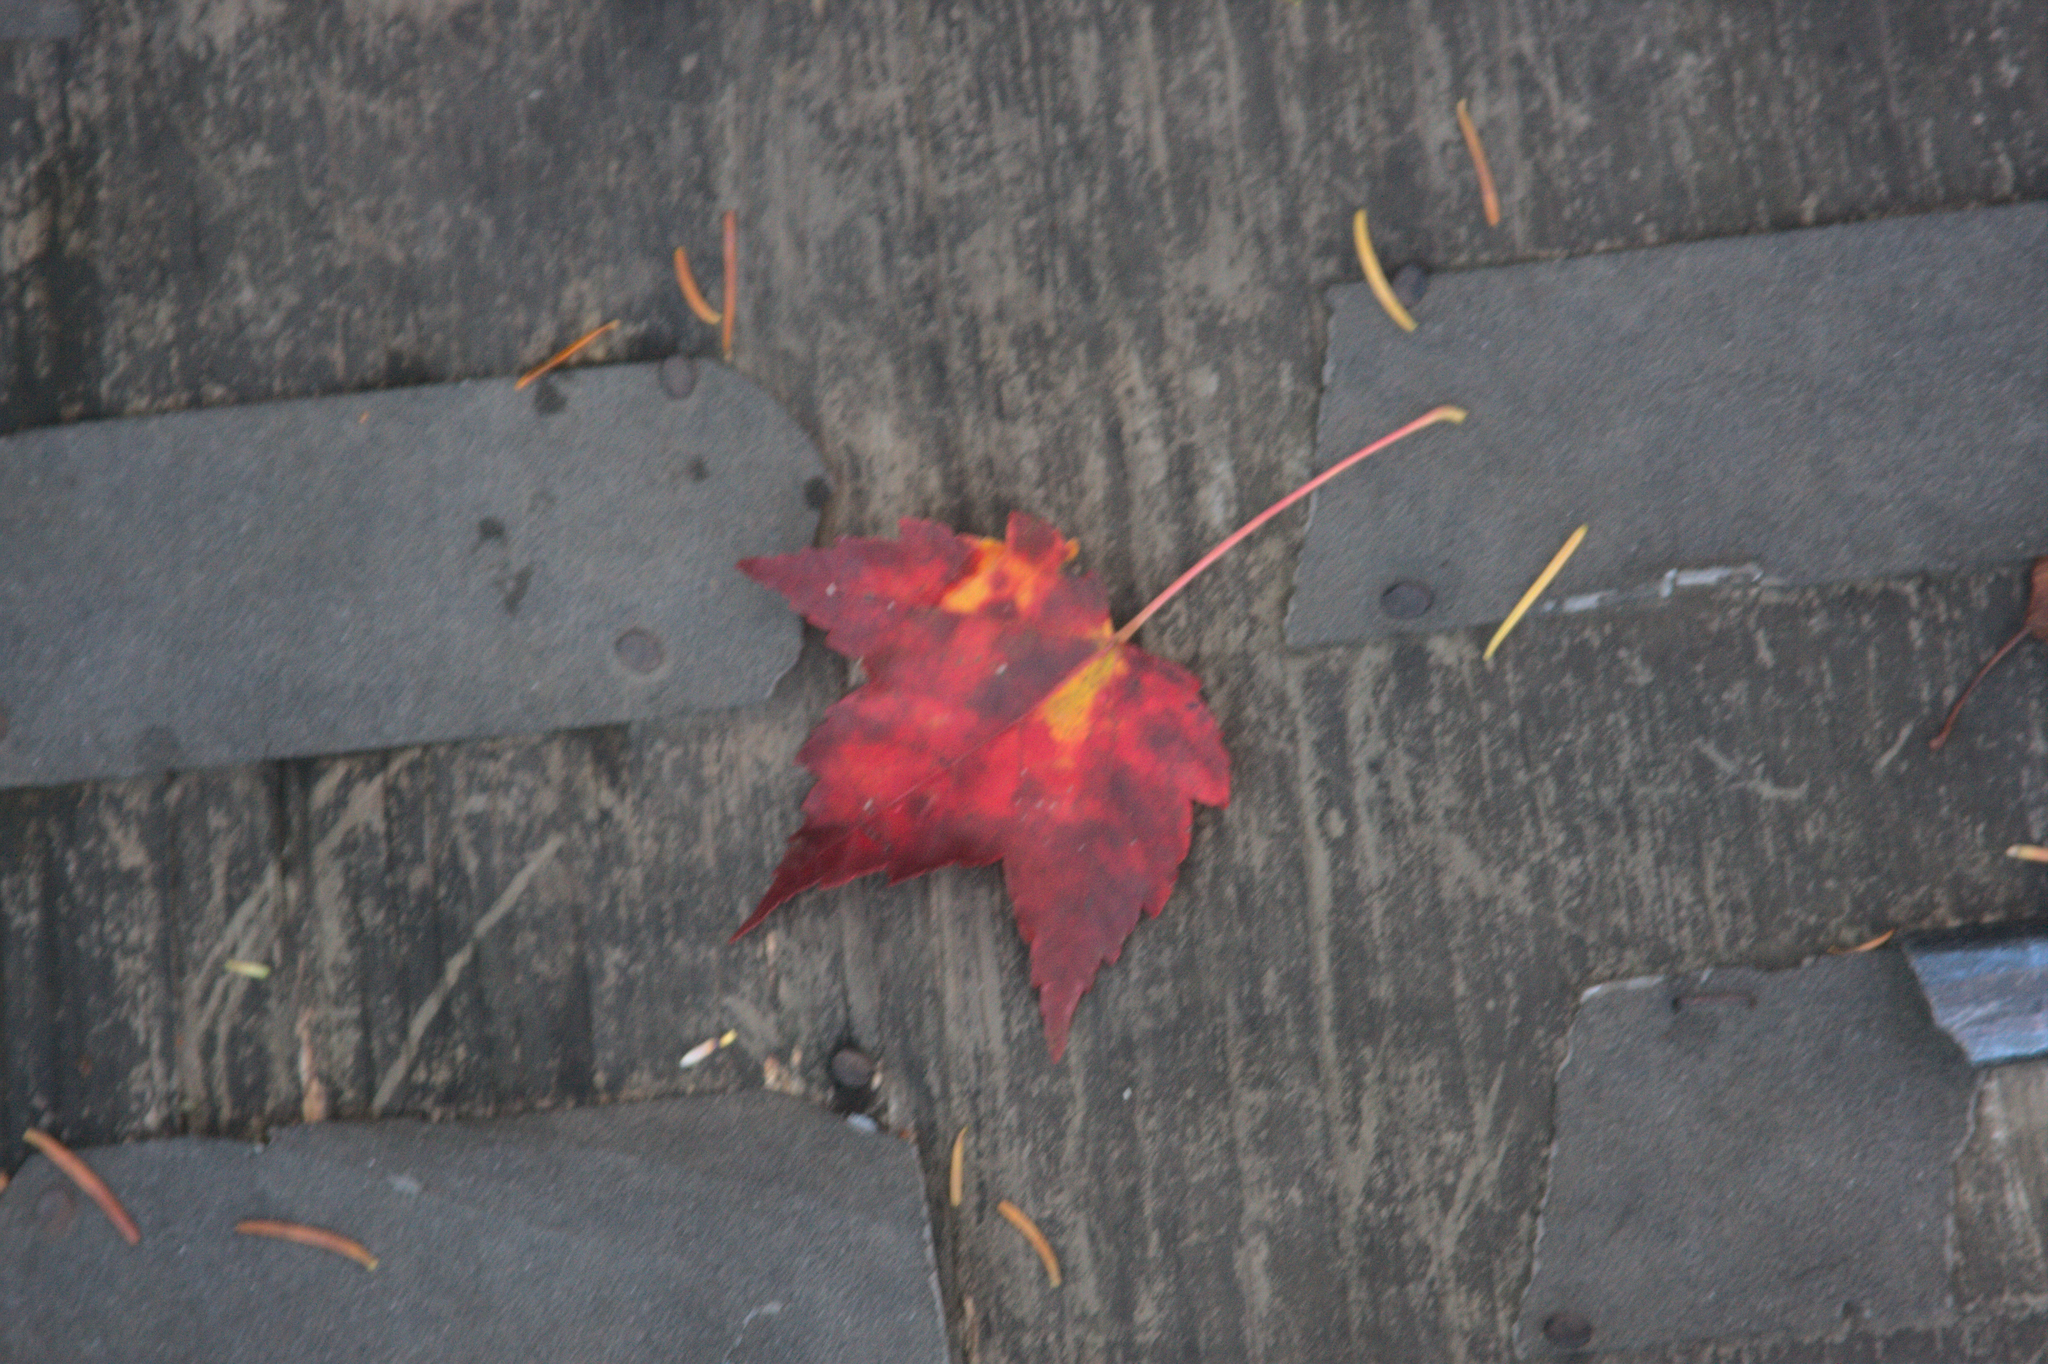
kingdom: Plantae
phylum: Tracheophyta
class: Magnoliopsida
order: Sapindales
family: Sapindaceae
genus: Acer
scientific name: Acer rubrum
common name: Red maple
